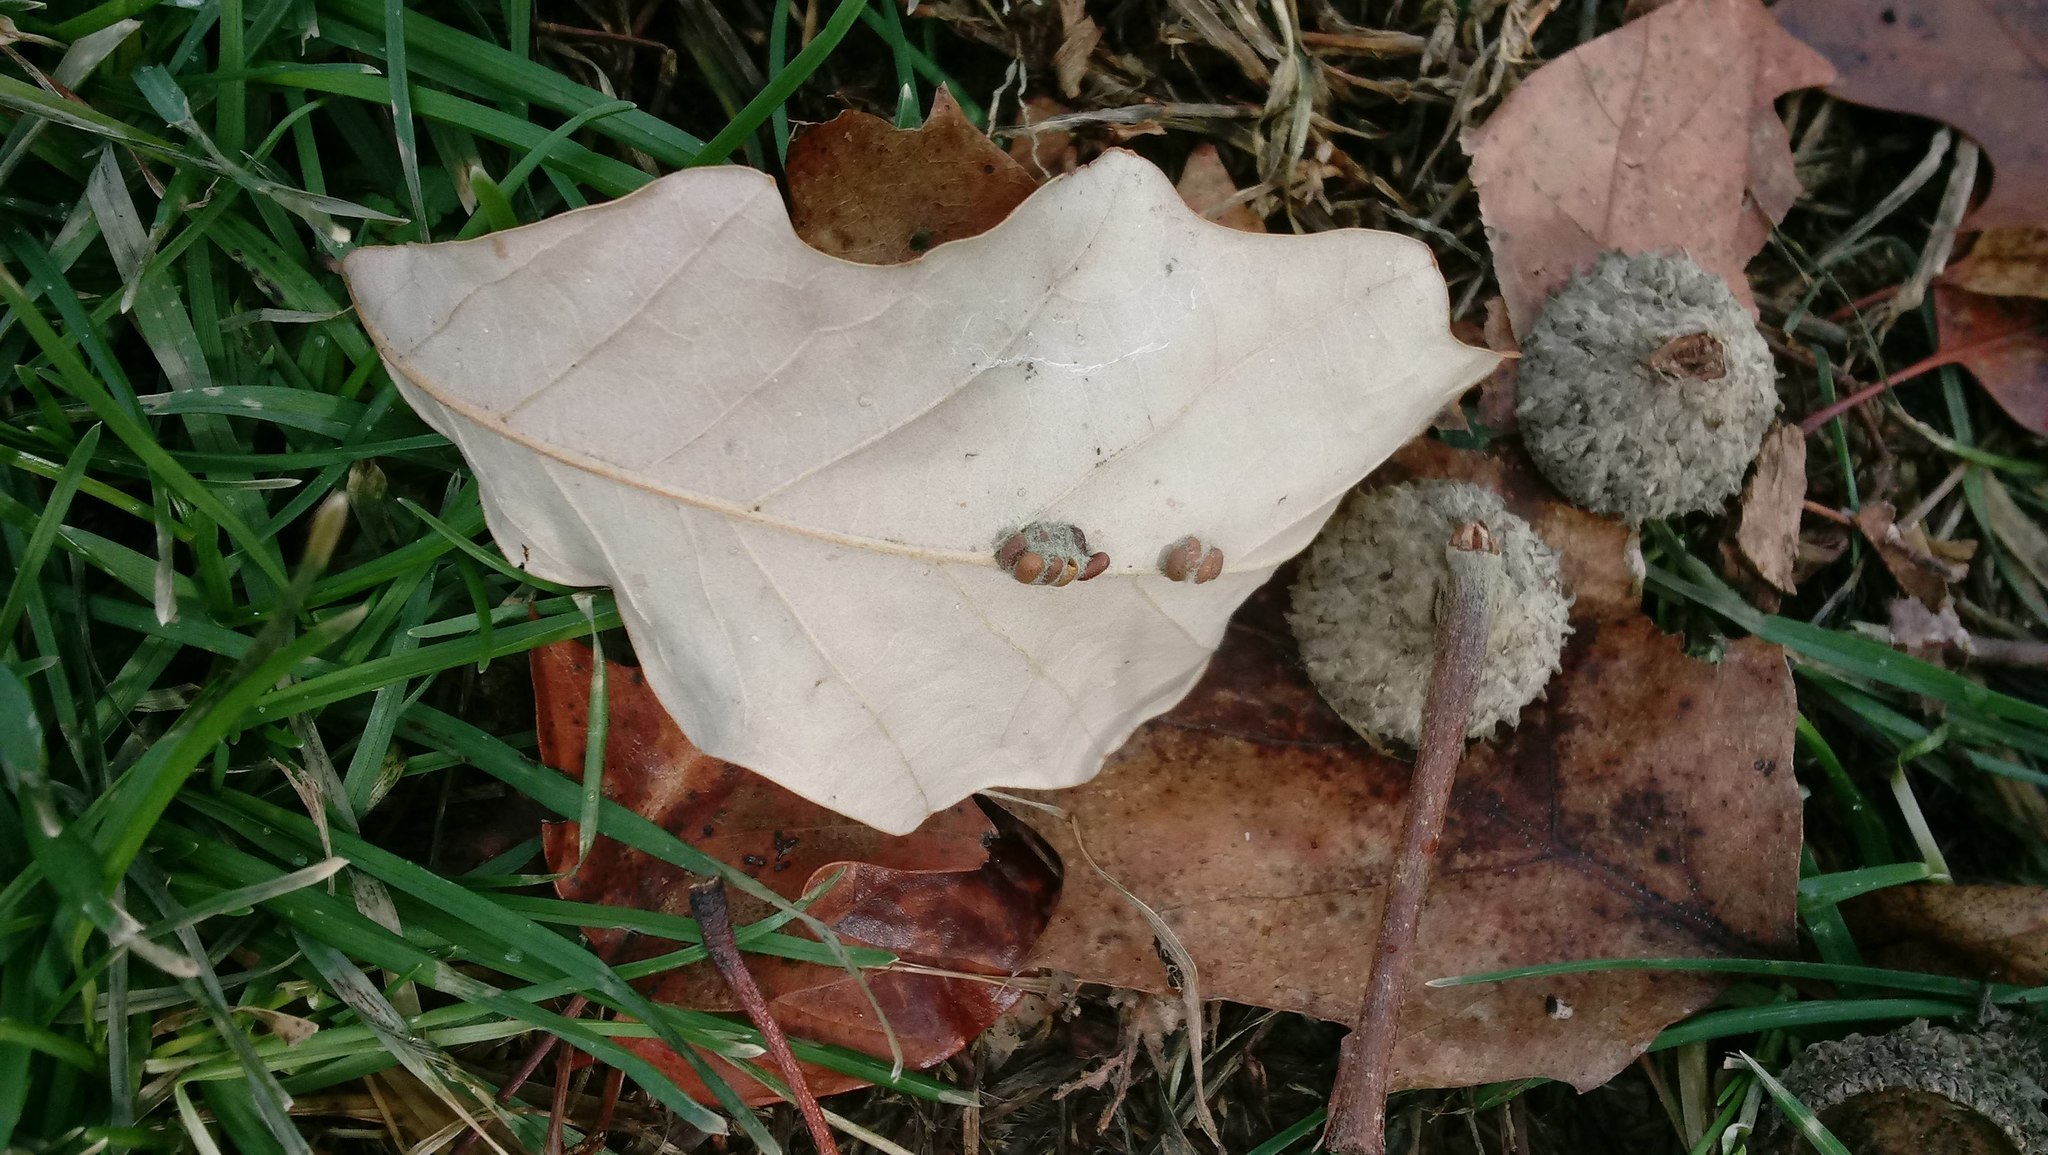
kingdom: Animalia
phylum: Arthropoda
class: Insecta
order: Hymenoptera
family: Cynipidae
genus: Andricus
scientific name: Andricus Druon ignotum
